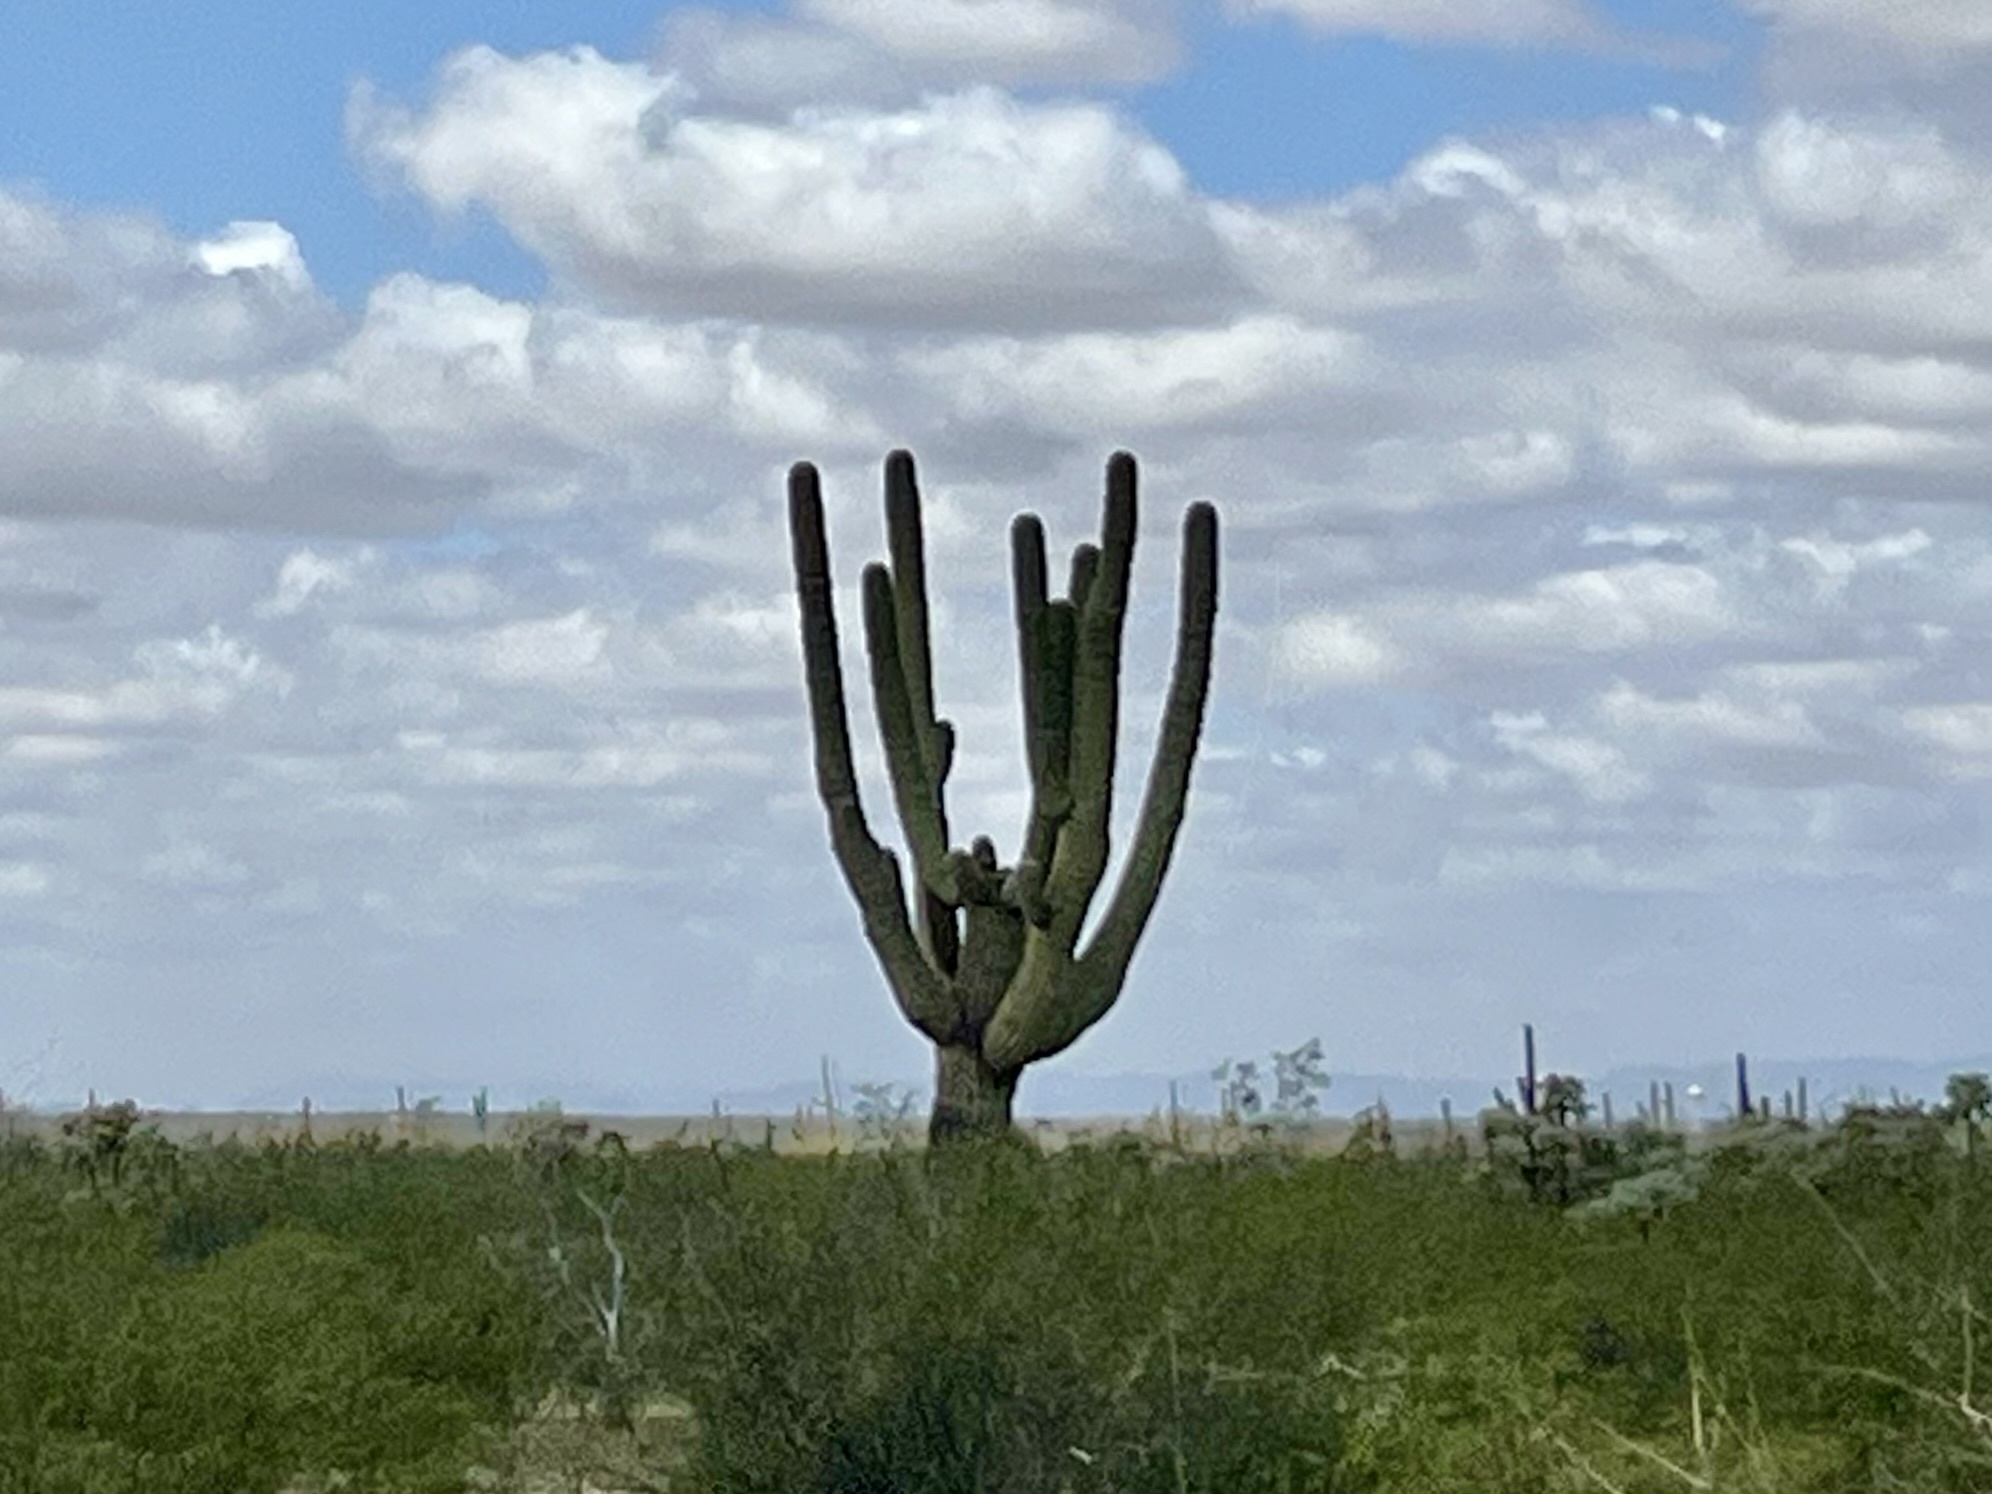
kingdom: Plantae
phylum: Tracheophyta
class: Magnoliopsida
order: Caryophyllales
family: Cactaceae
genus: Carnegiea
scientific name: Carnegiea gigantea
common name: Saguaro
